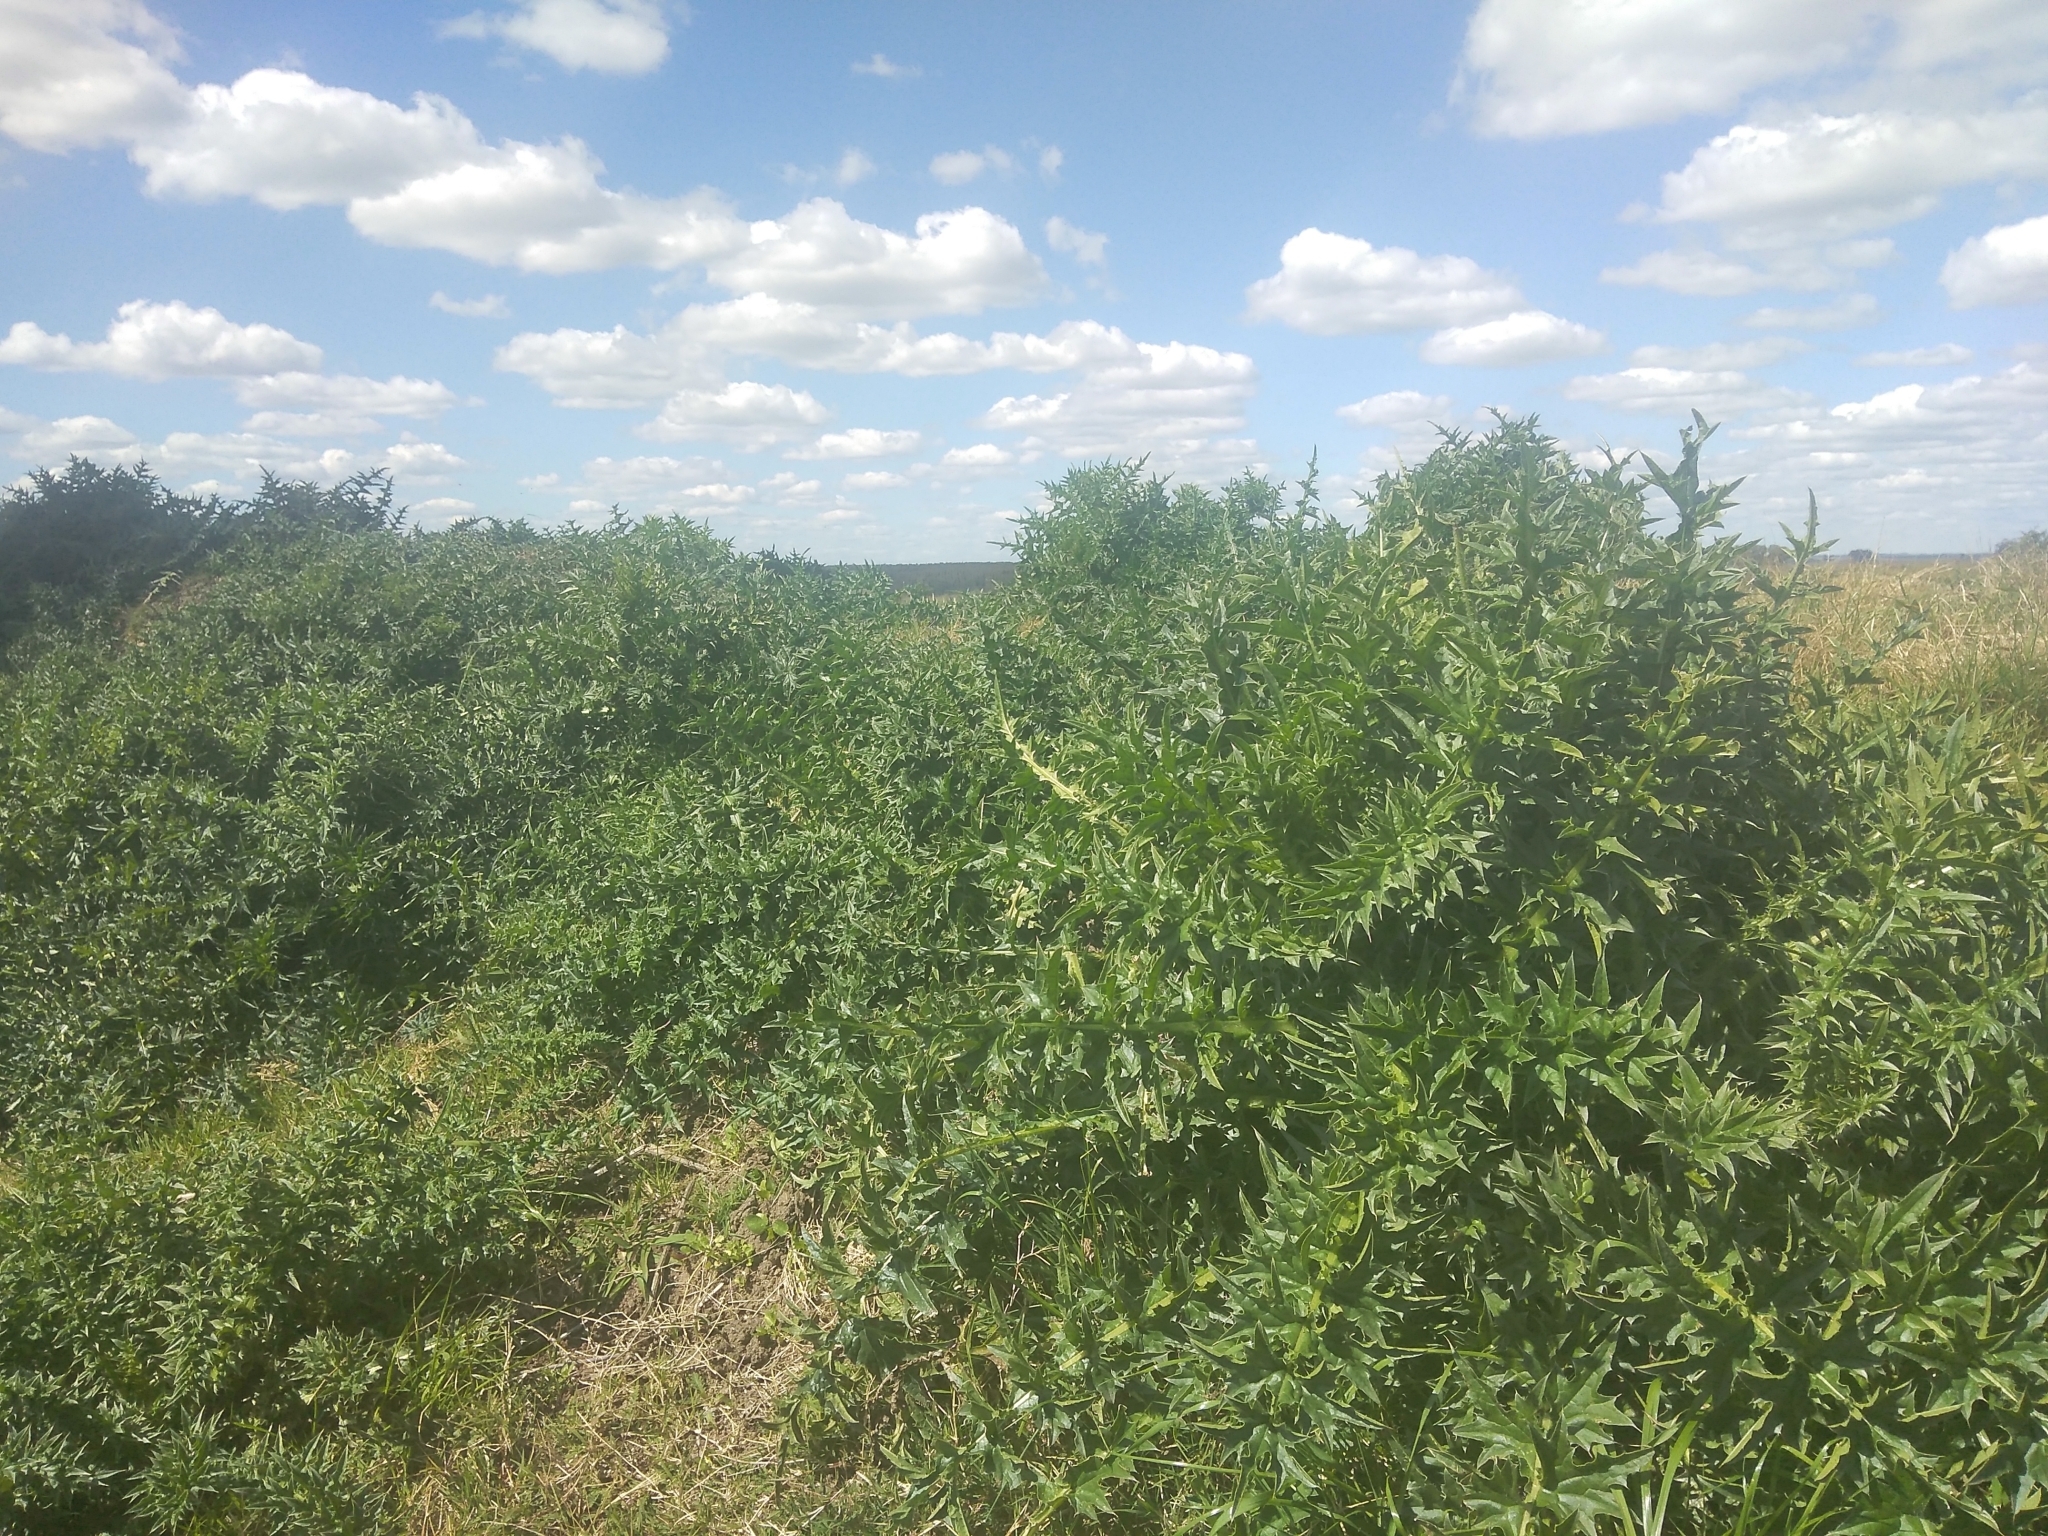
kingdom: Plantae
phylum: Tracheophyta
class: Magnoliopsida
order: Asterales
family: Asteraceae
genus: Carduus
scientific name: Carduus acanthoides
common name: Plumeless thistle
